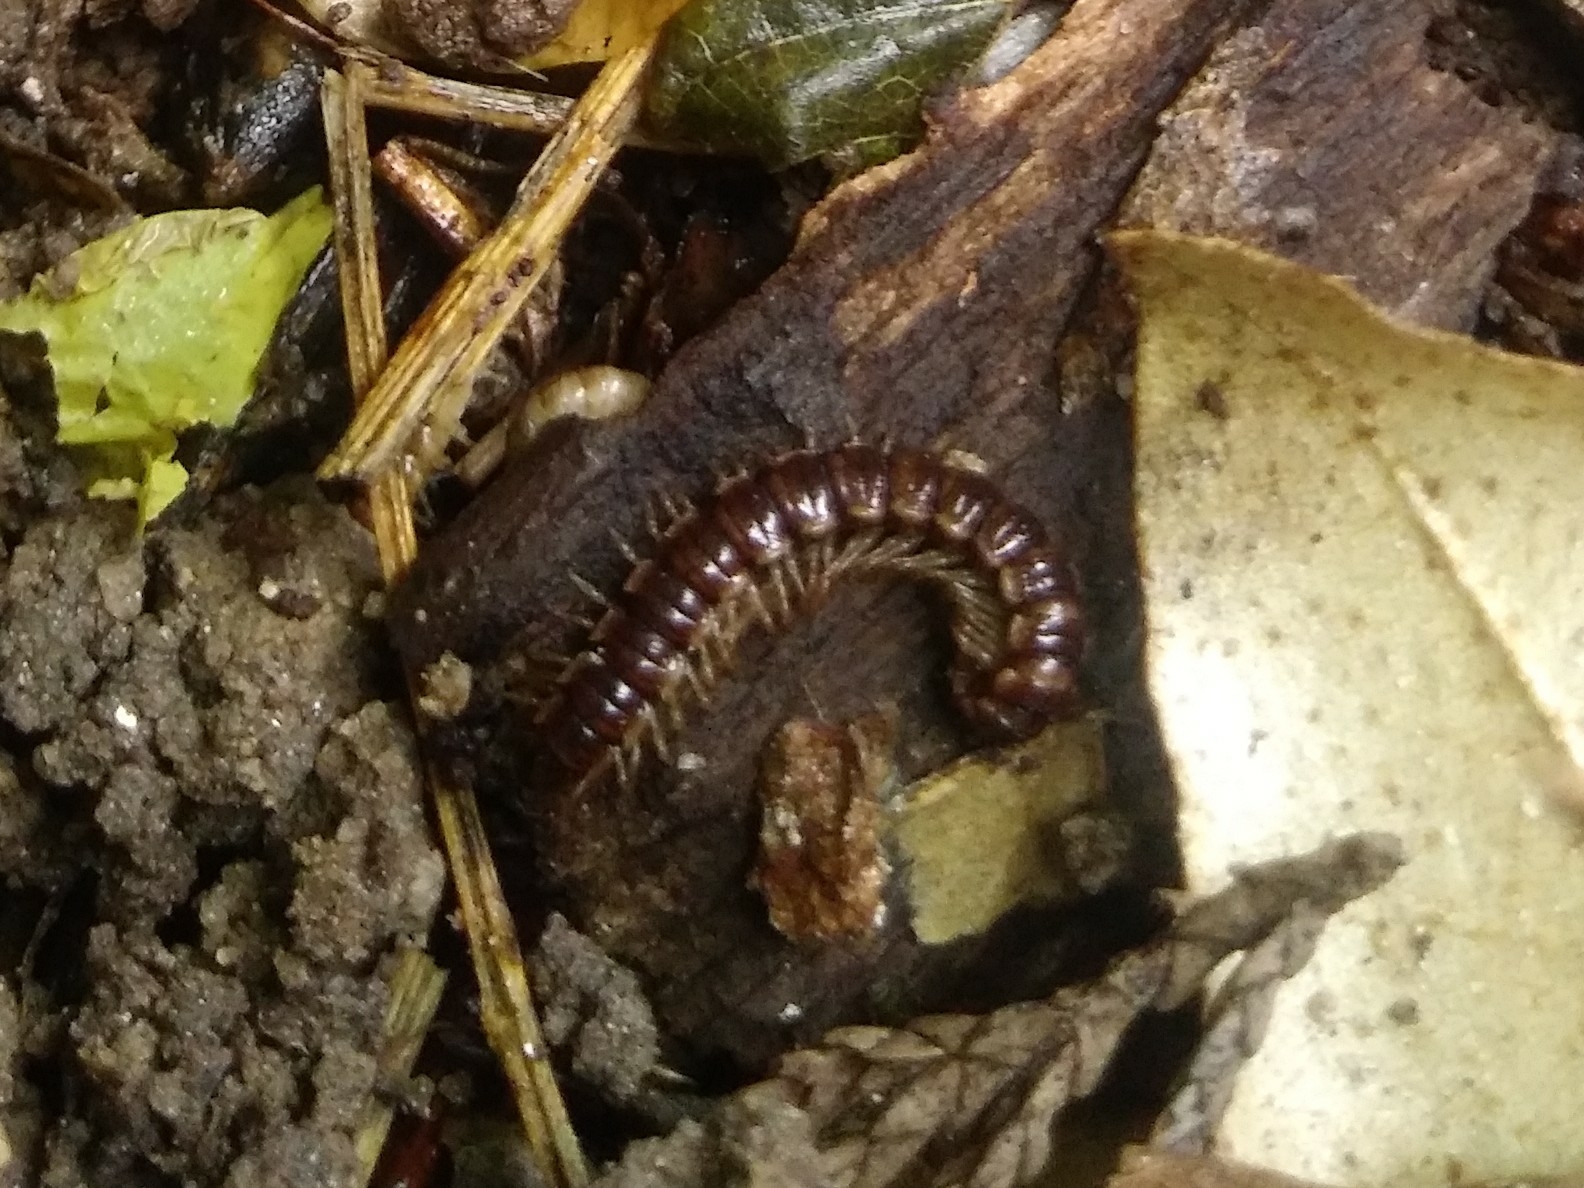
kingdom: Animalia
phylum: Arthropoda
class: Diplopoda
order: Polydesmida
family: Paradoxosomatidae
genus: Oxidus
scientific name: Oxidus gracilis
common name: Greenhouse millipede
